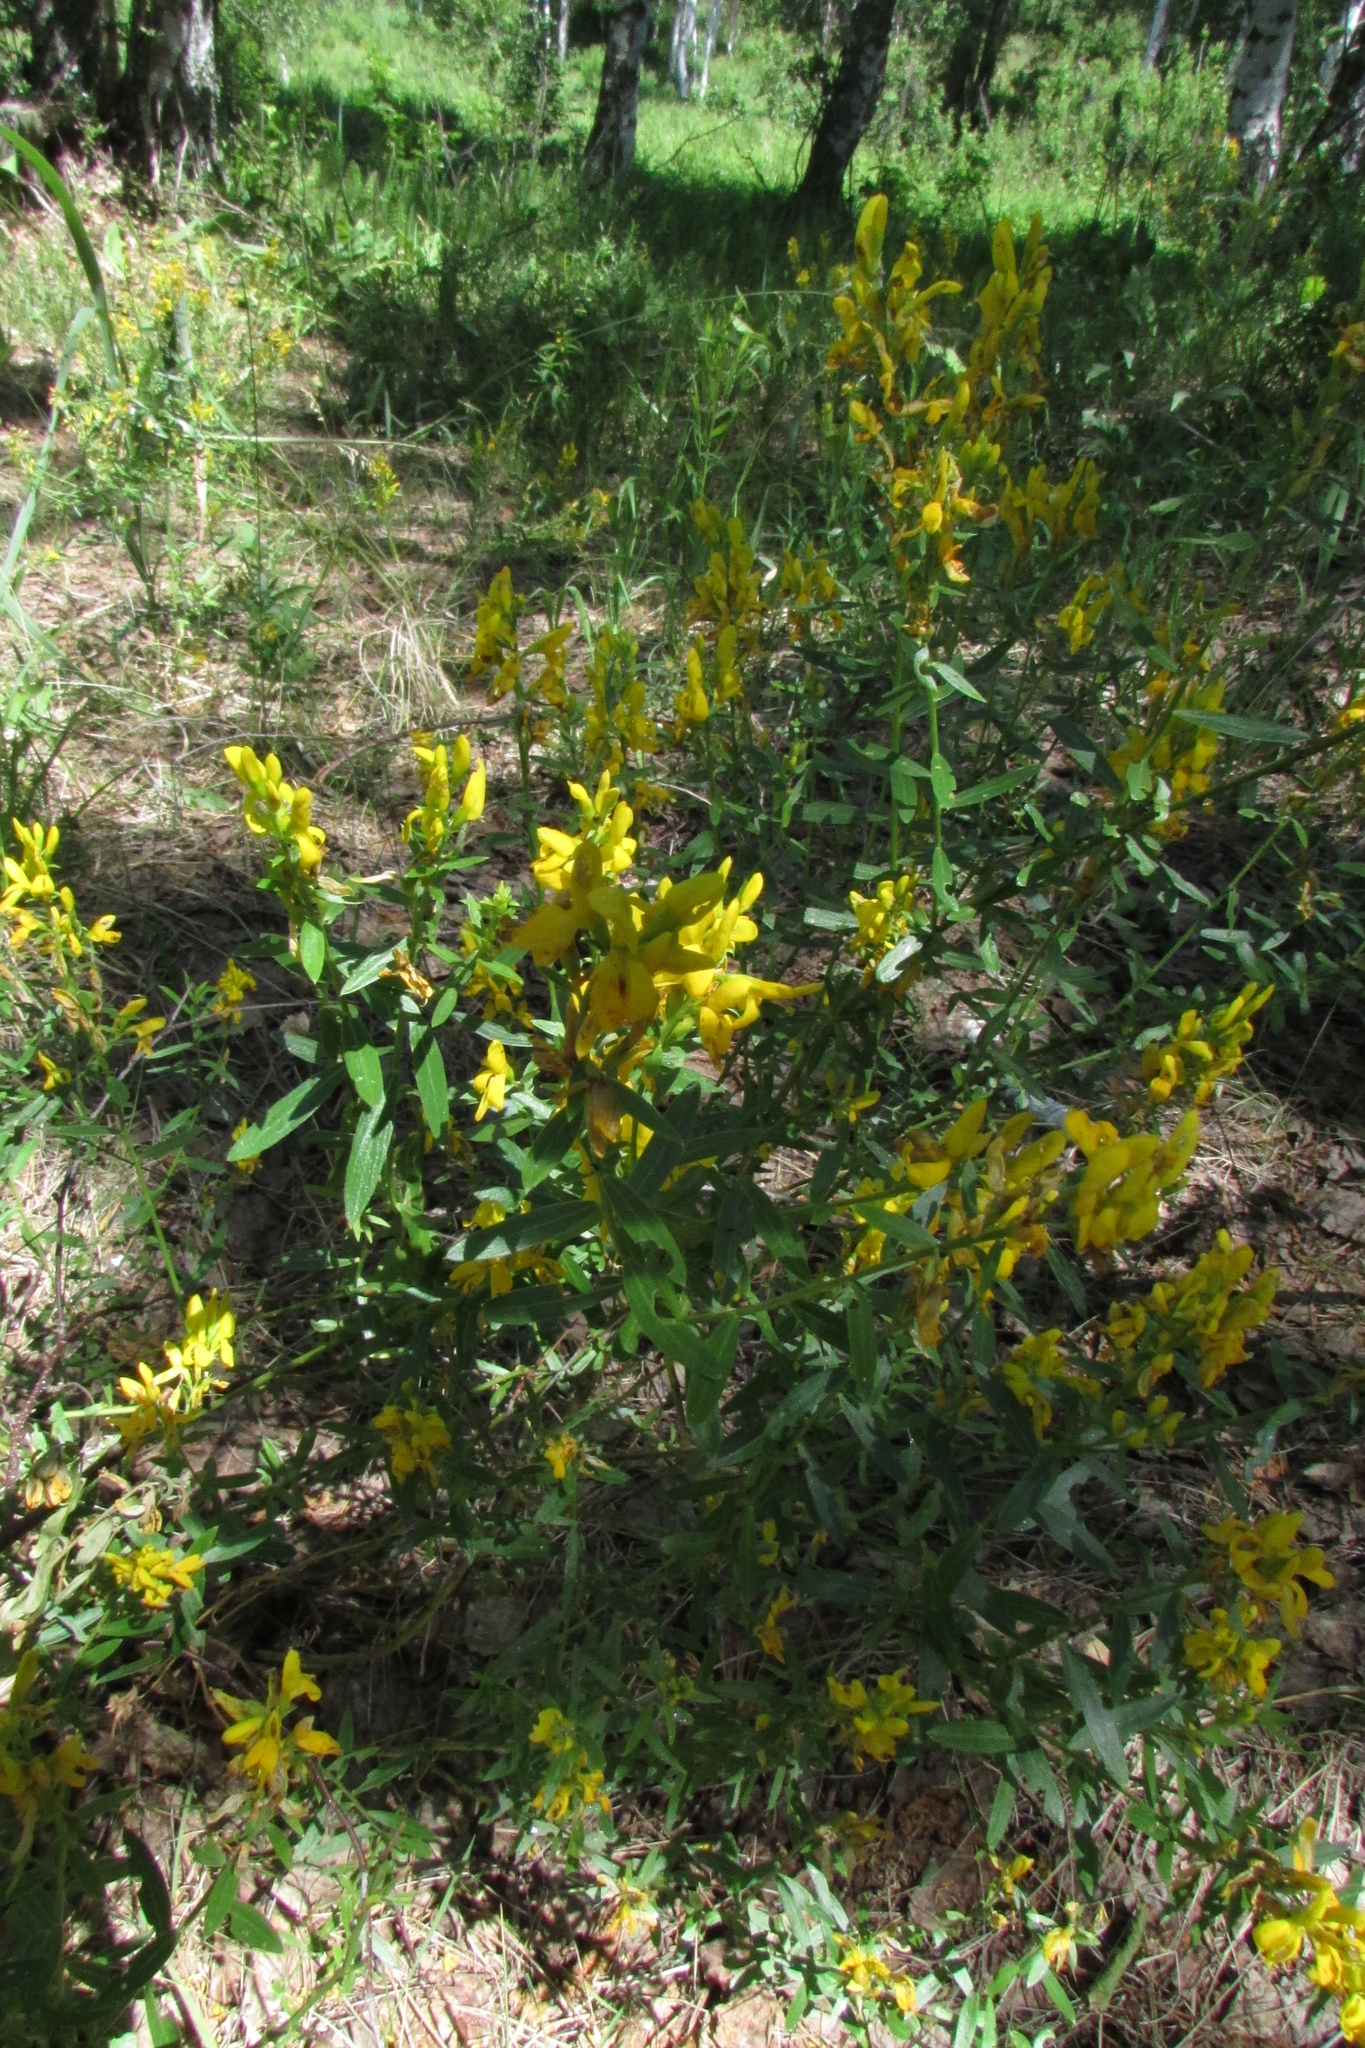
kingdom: Plantae
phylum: Tracheophyta
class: Magnoliopsida
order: Fabales
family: Fabaceae
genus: Genista
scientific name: Genista tinctoria
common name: Dyer's greenweed
